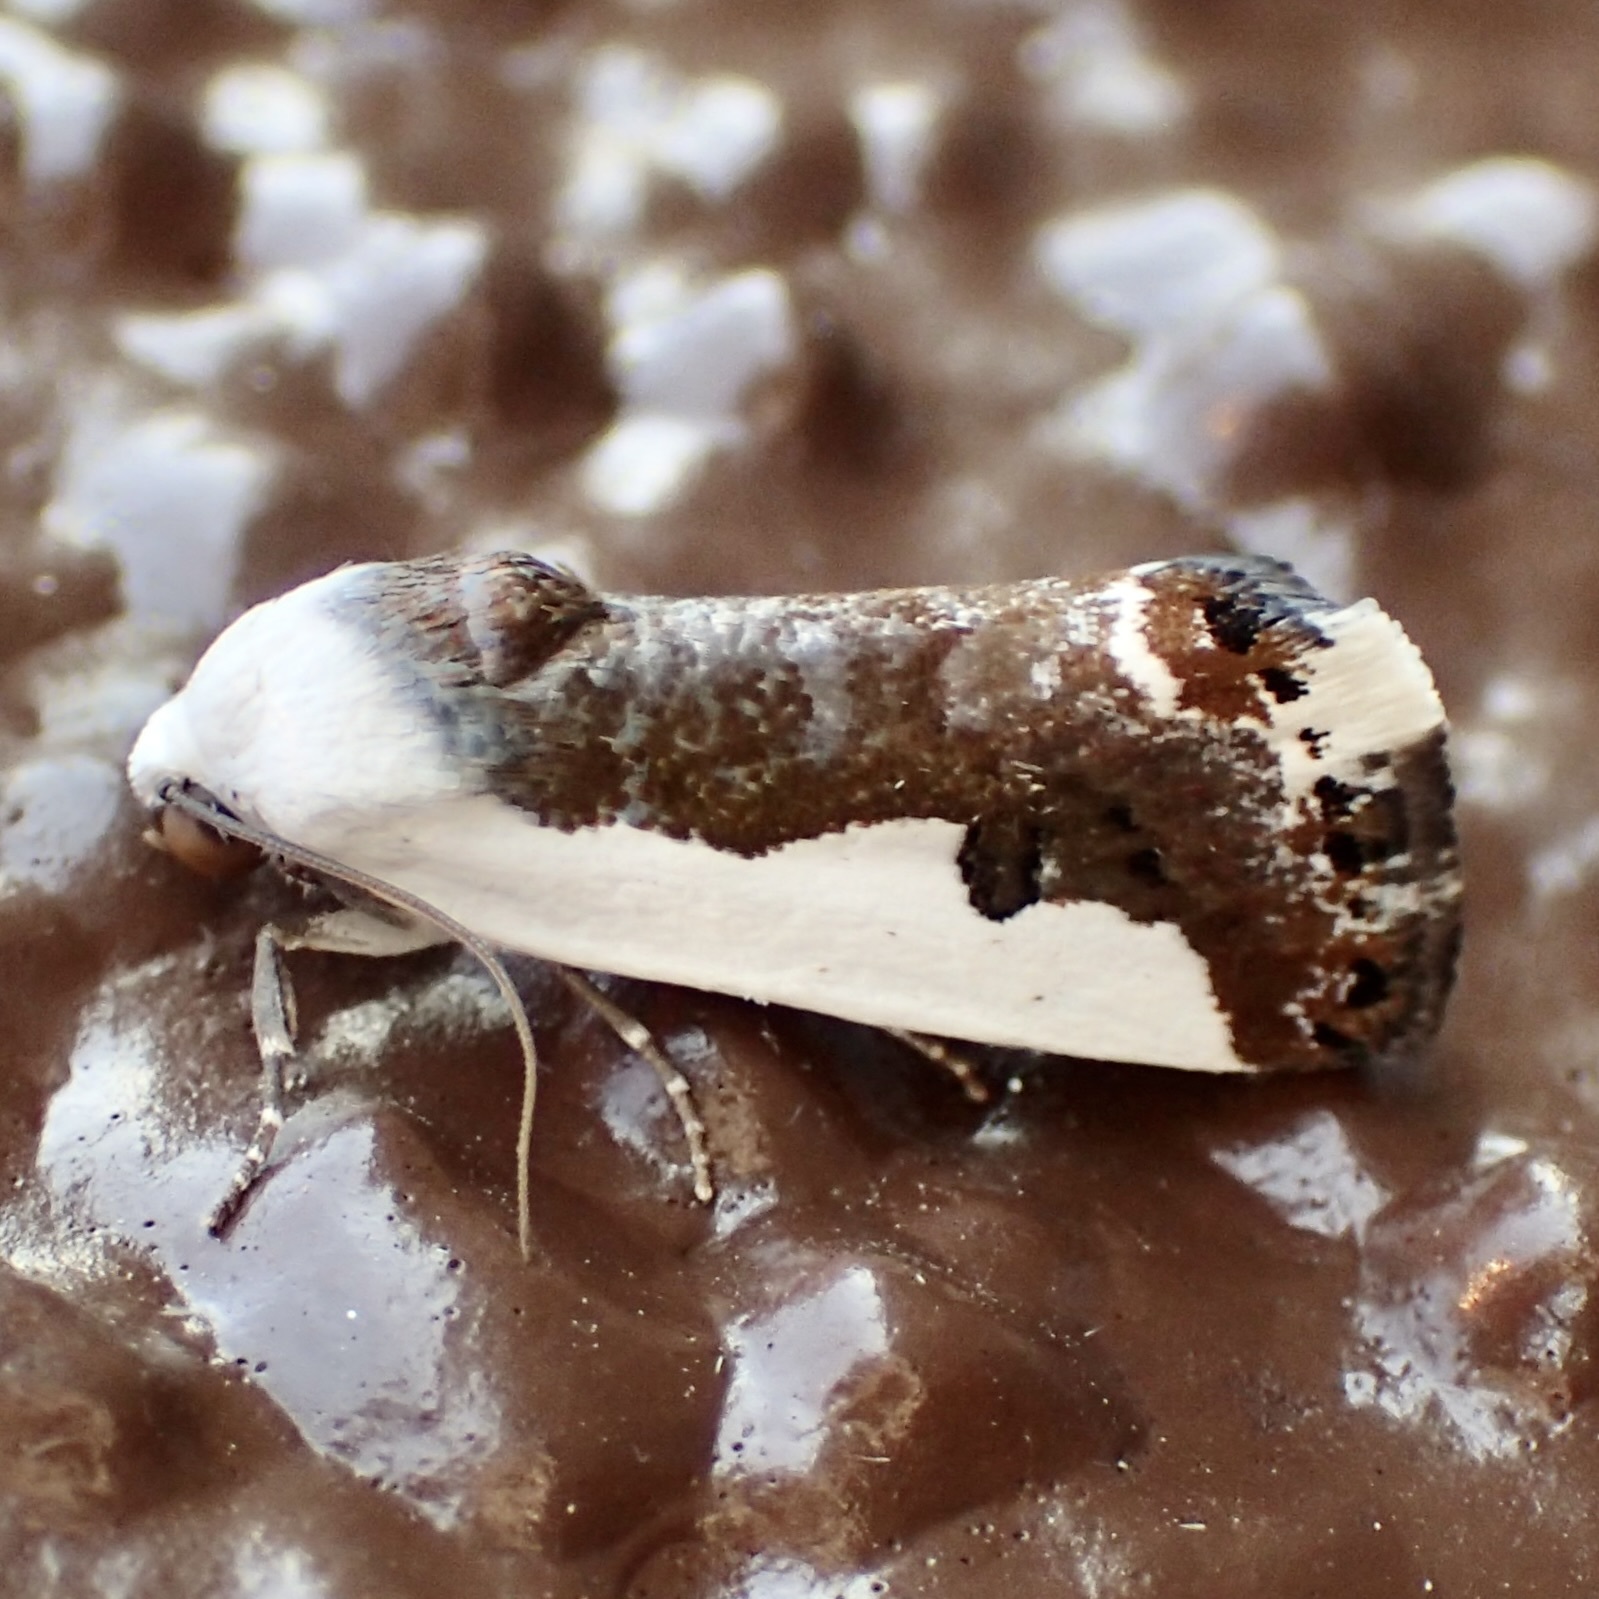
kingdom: Animalia
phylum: Arthropoda
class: Insecta
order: Lepidoptera
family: Noctuidae
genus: Acontia
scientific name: Acontia lucasi
